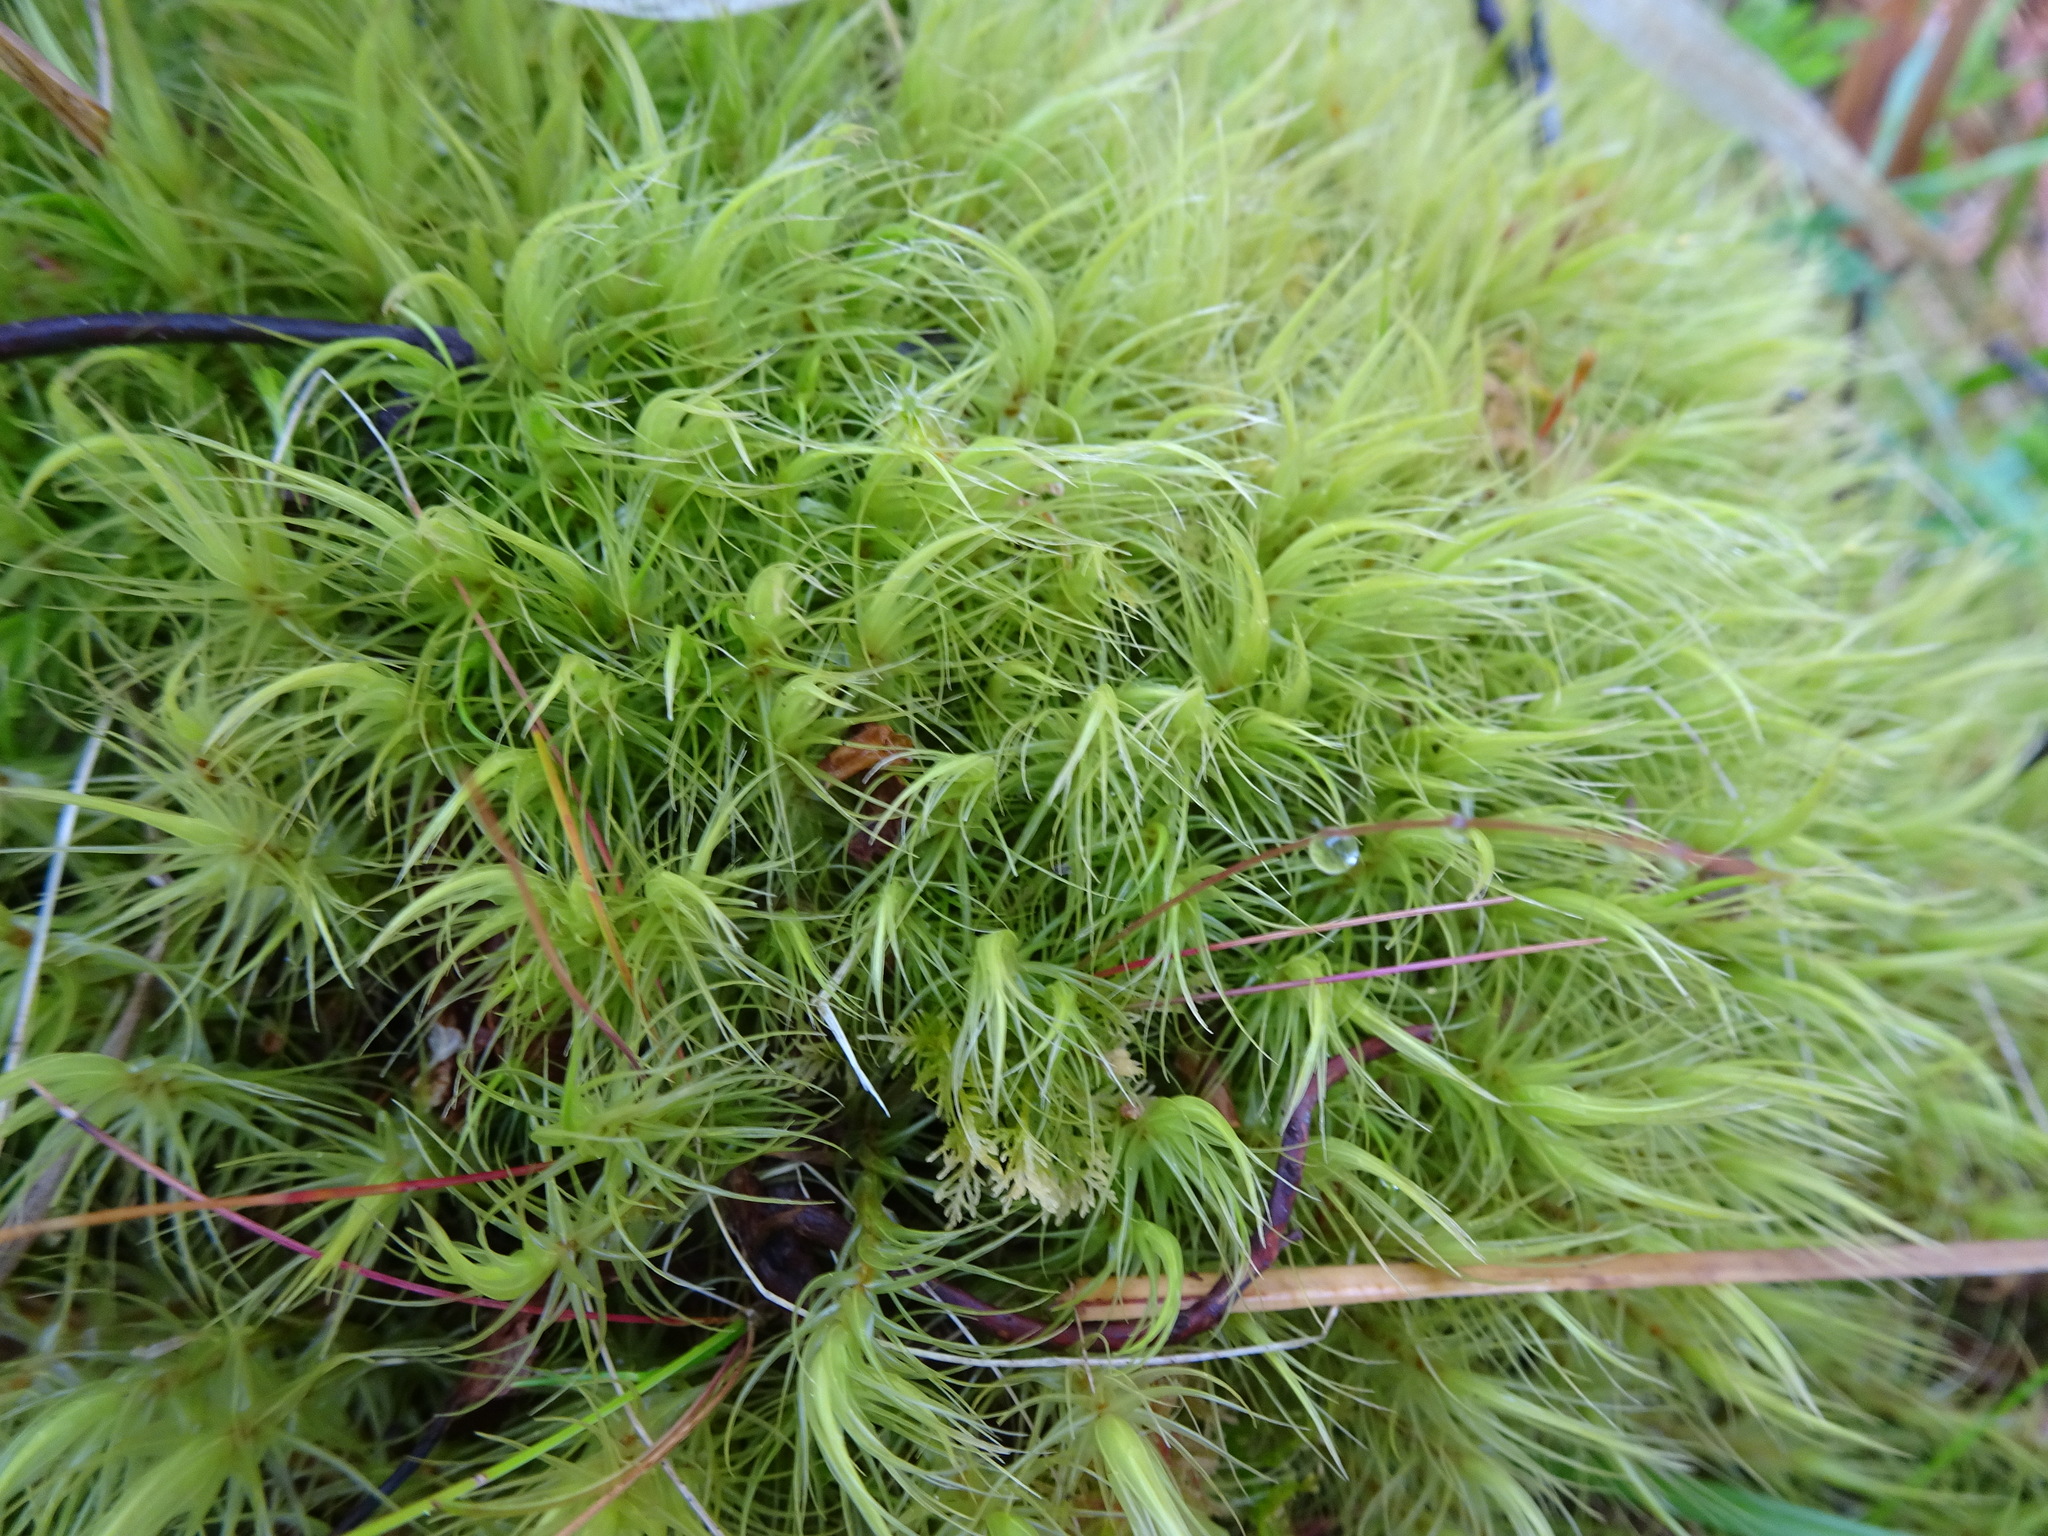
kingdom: Plantae
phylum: Bryophyta
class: Bryopsida
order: Dicranales
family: Dicranaceae
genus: Dicranum
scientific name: Dicranum majus
